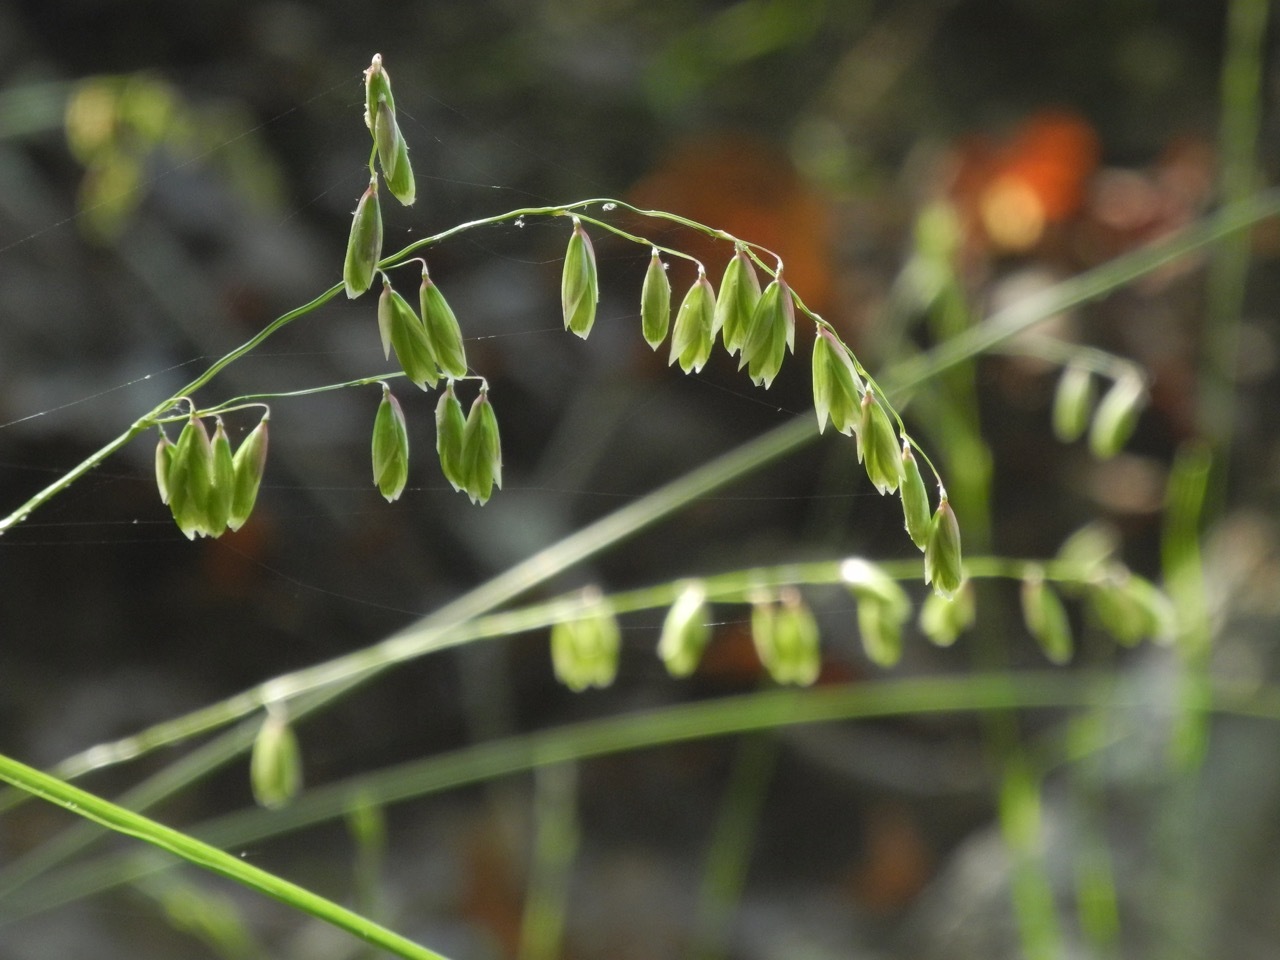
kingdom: Plantae
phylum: Tracheophyta
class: Liliopsida
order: Poales
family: Poaceae
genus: Melica
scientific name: Melica mutica
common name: Two-flower melic
